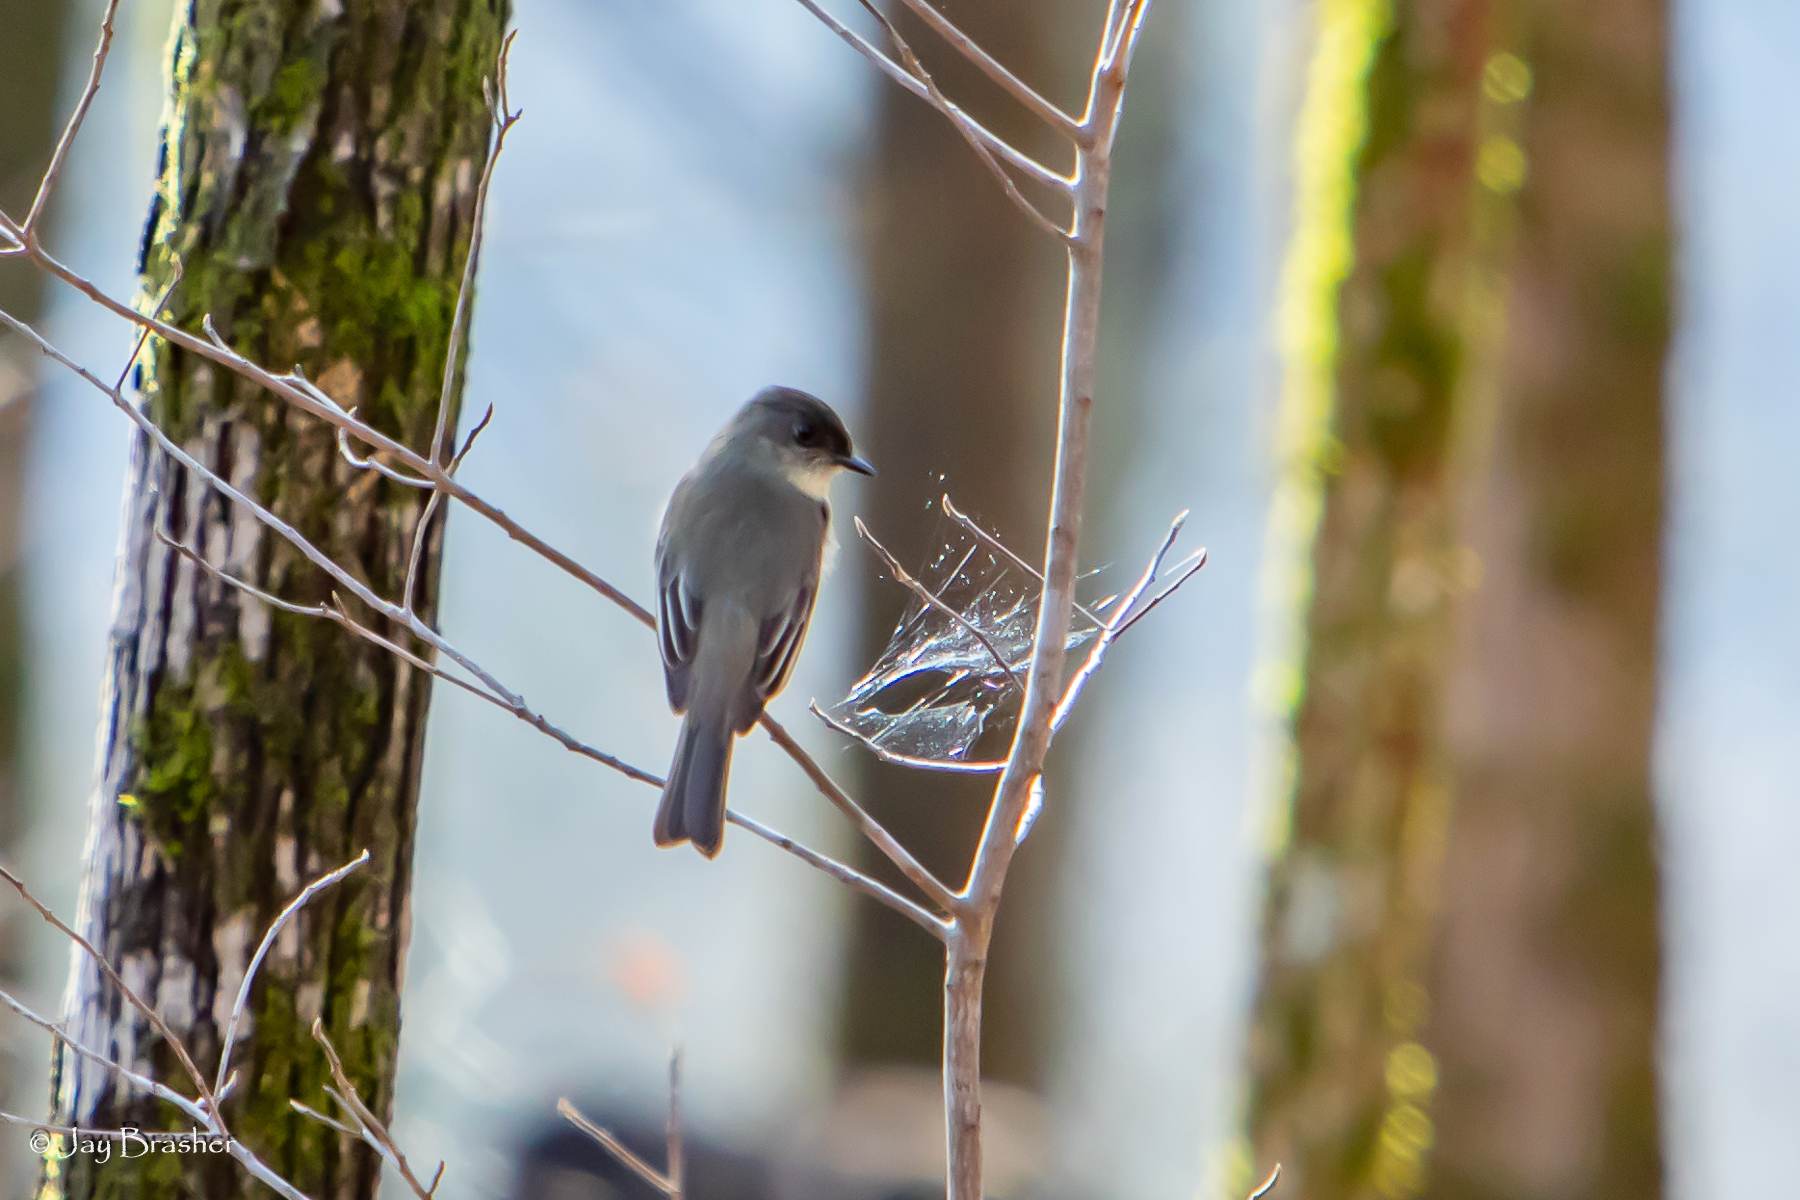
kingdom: Animalia
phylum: Chordata
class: Aves
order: Passeriformes
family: Tyrannidae
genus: Sayornis
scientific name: Sayornis phoebe
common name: Eastern phoebe
